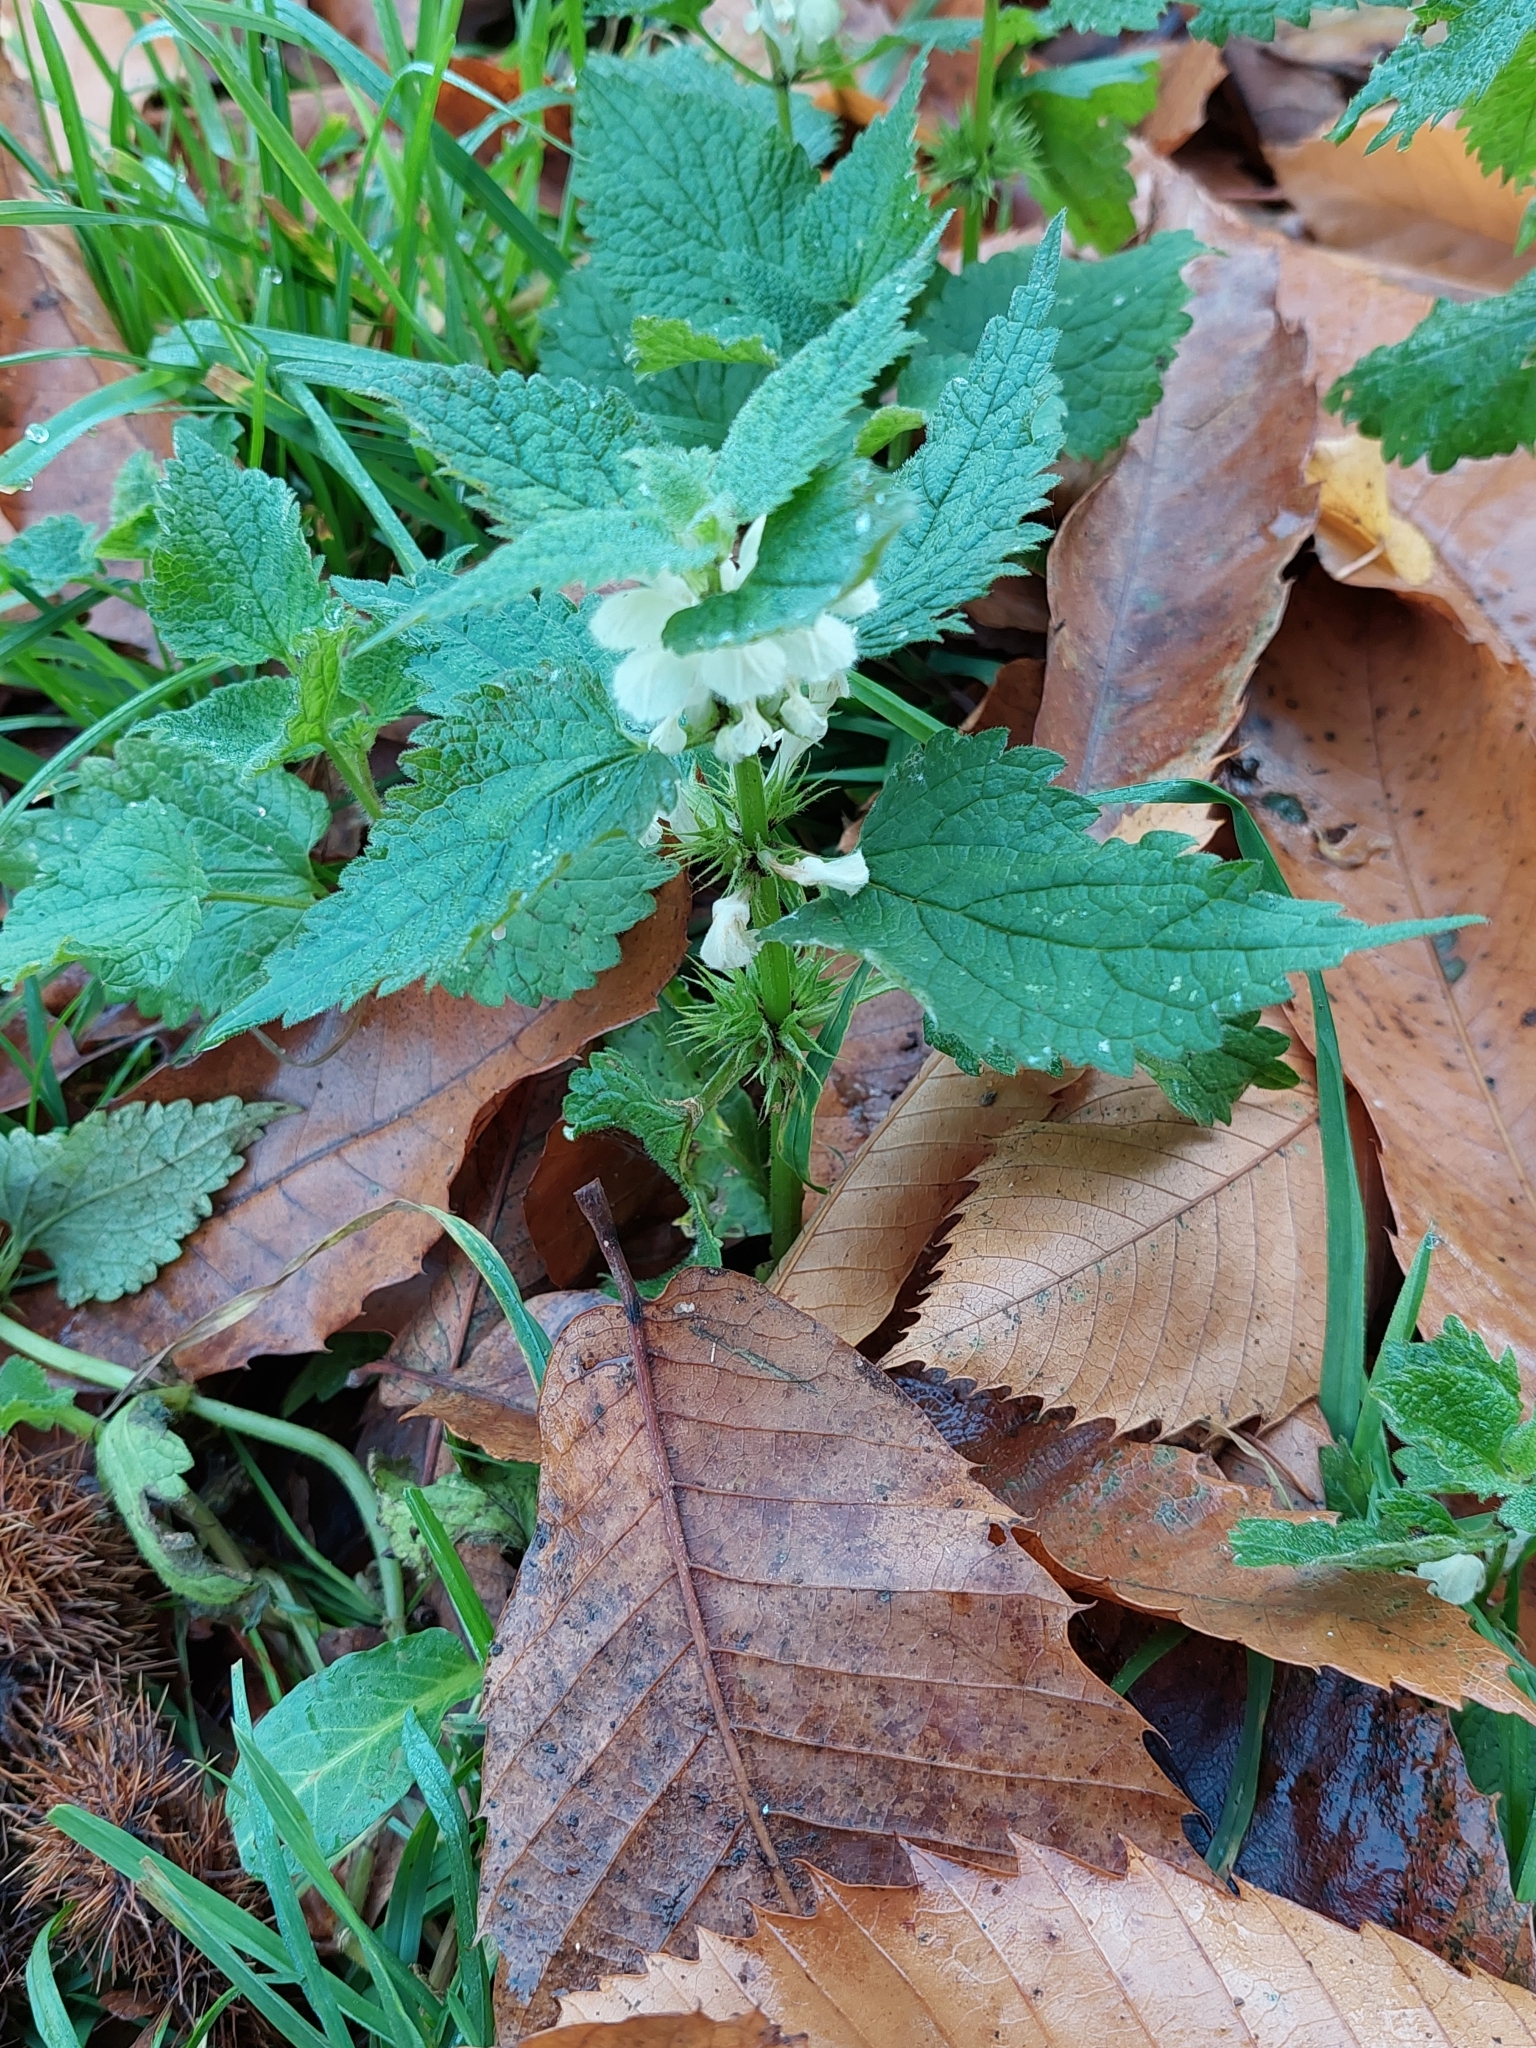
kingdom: Plantae
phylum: Tracheophyta
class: Magnoliopsida
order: Lamiales
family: Lamiaceae
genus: Lamium
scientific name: Lamium album
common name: White dead-nettle
